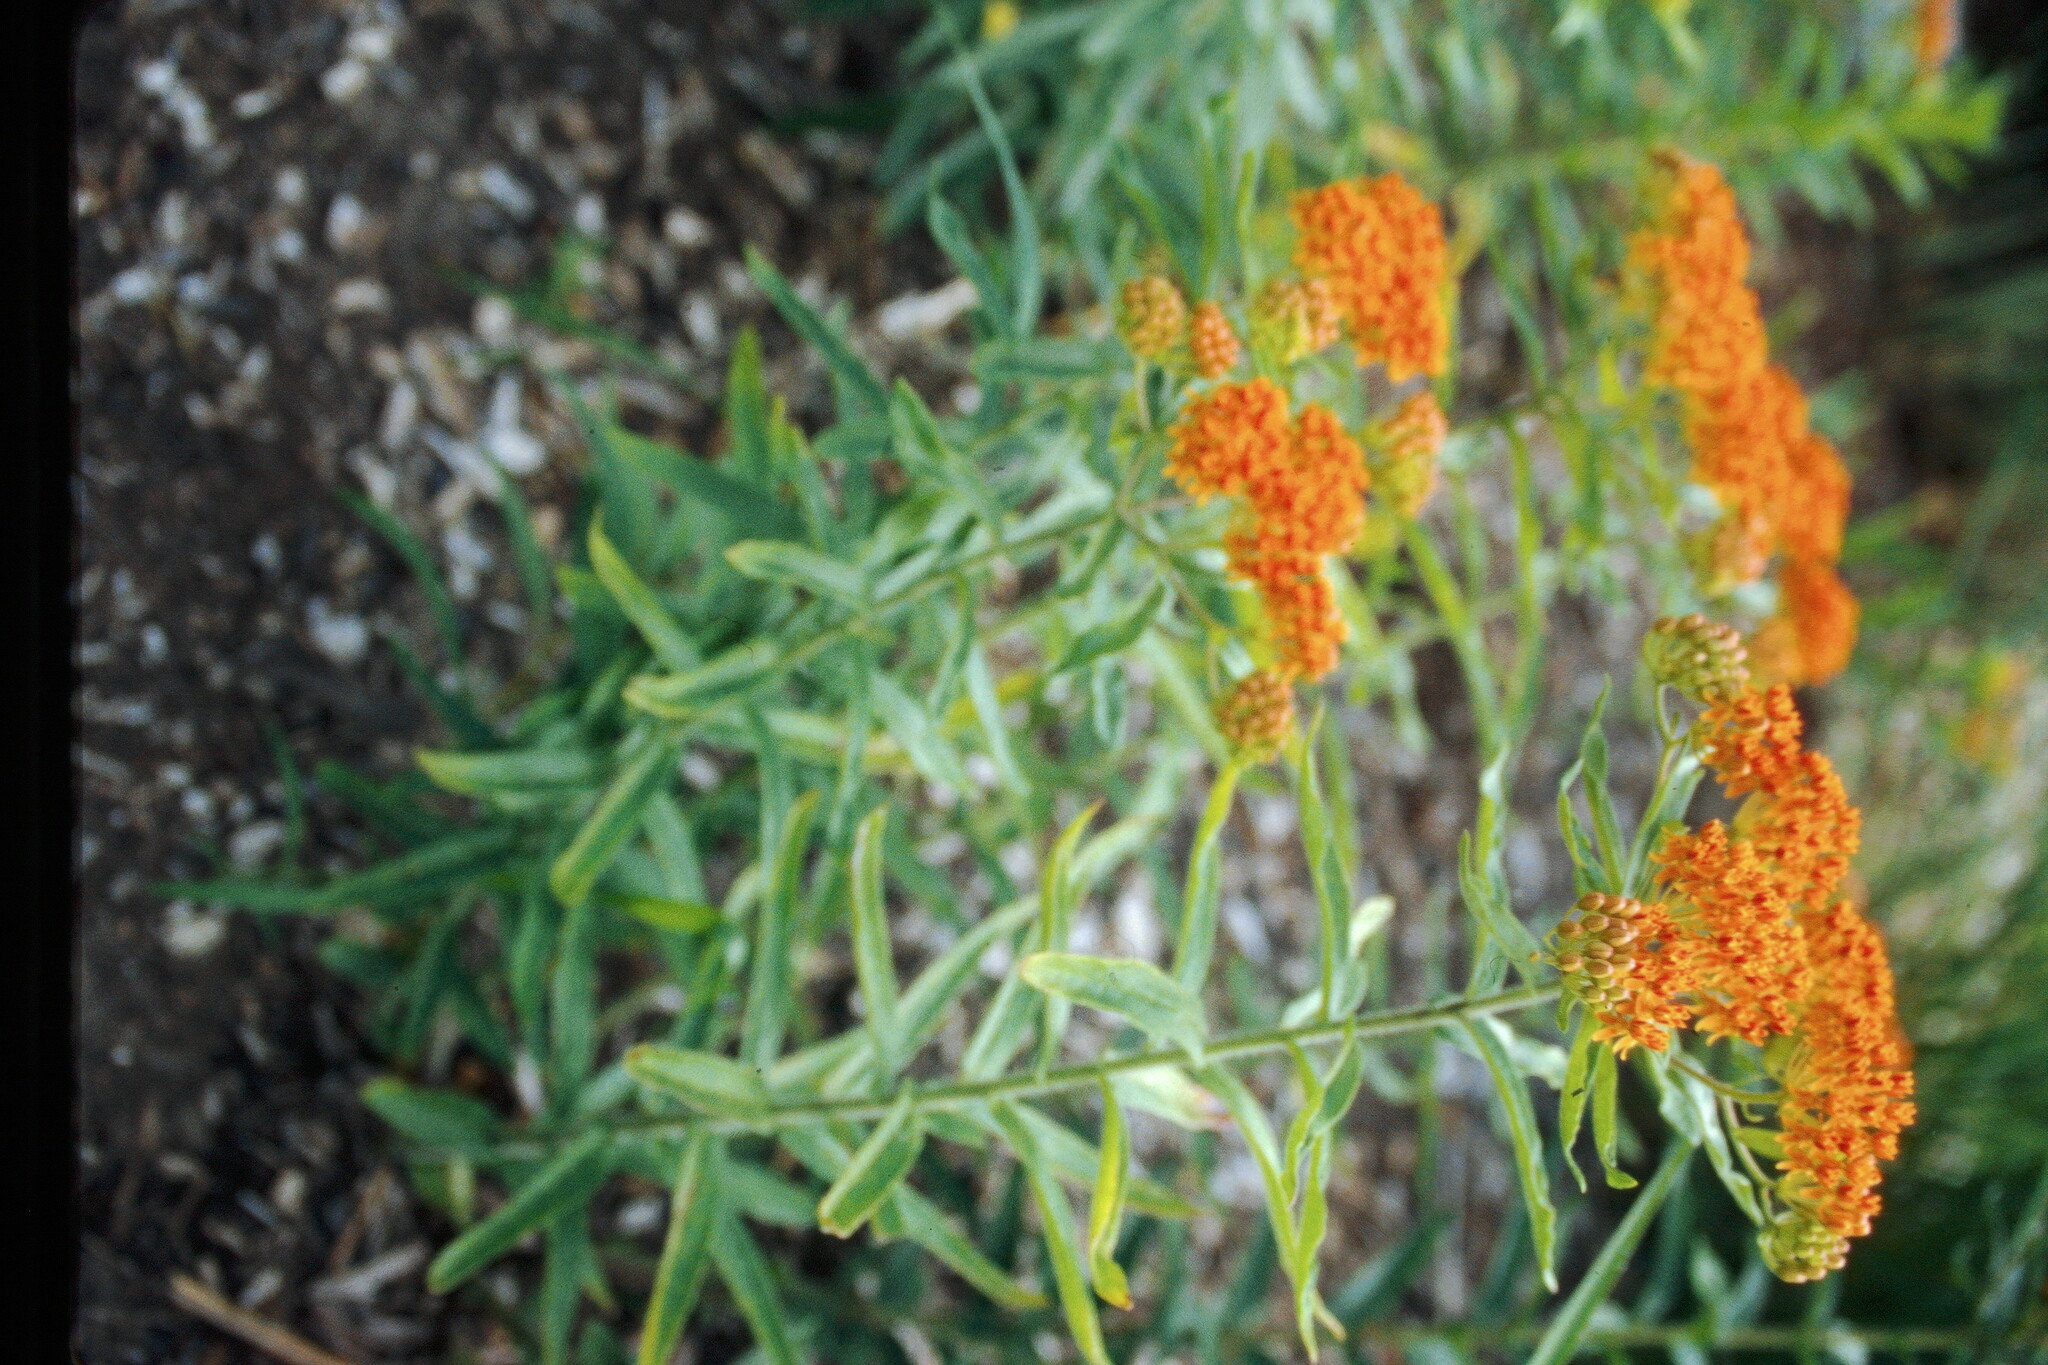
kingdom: Plantae
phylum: Tracheophyta
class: Magnoliopsida
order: Gentianales
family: Apocynaceae
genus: Asclepias
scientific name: Asclepias tuberosa
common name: Butterfly milkweed
